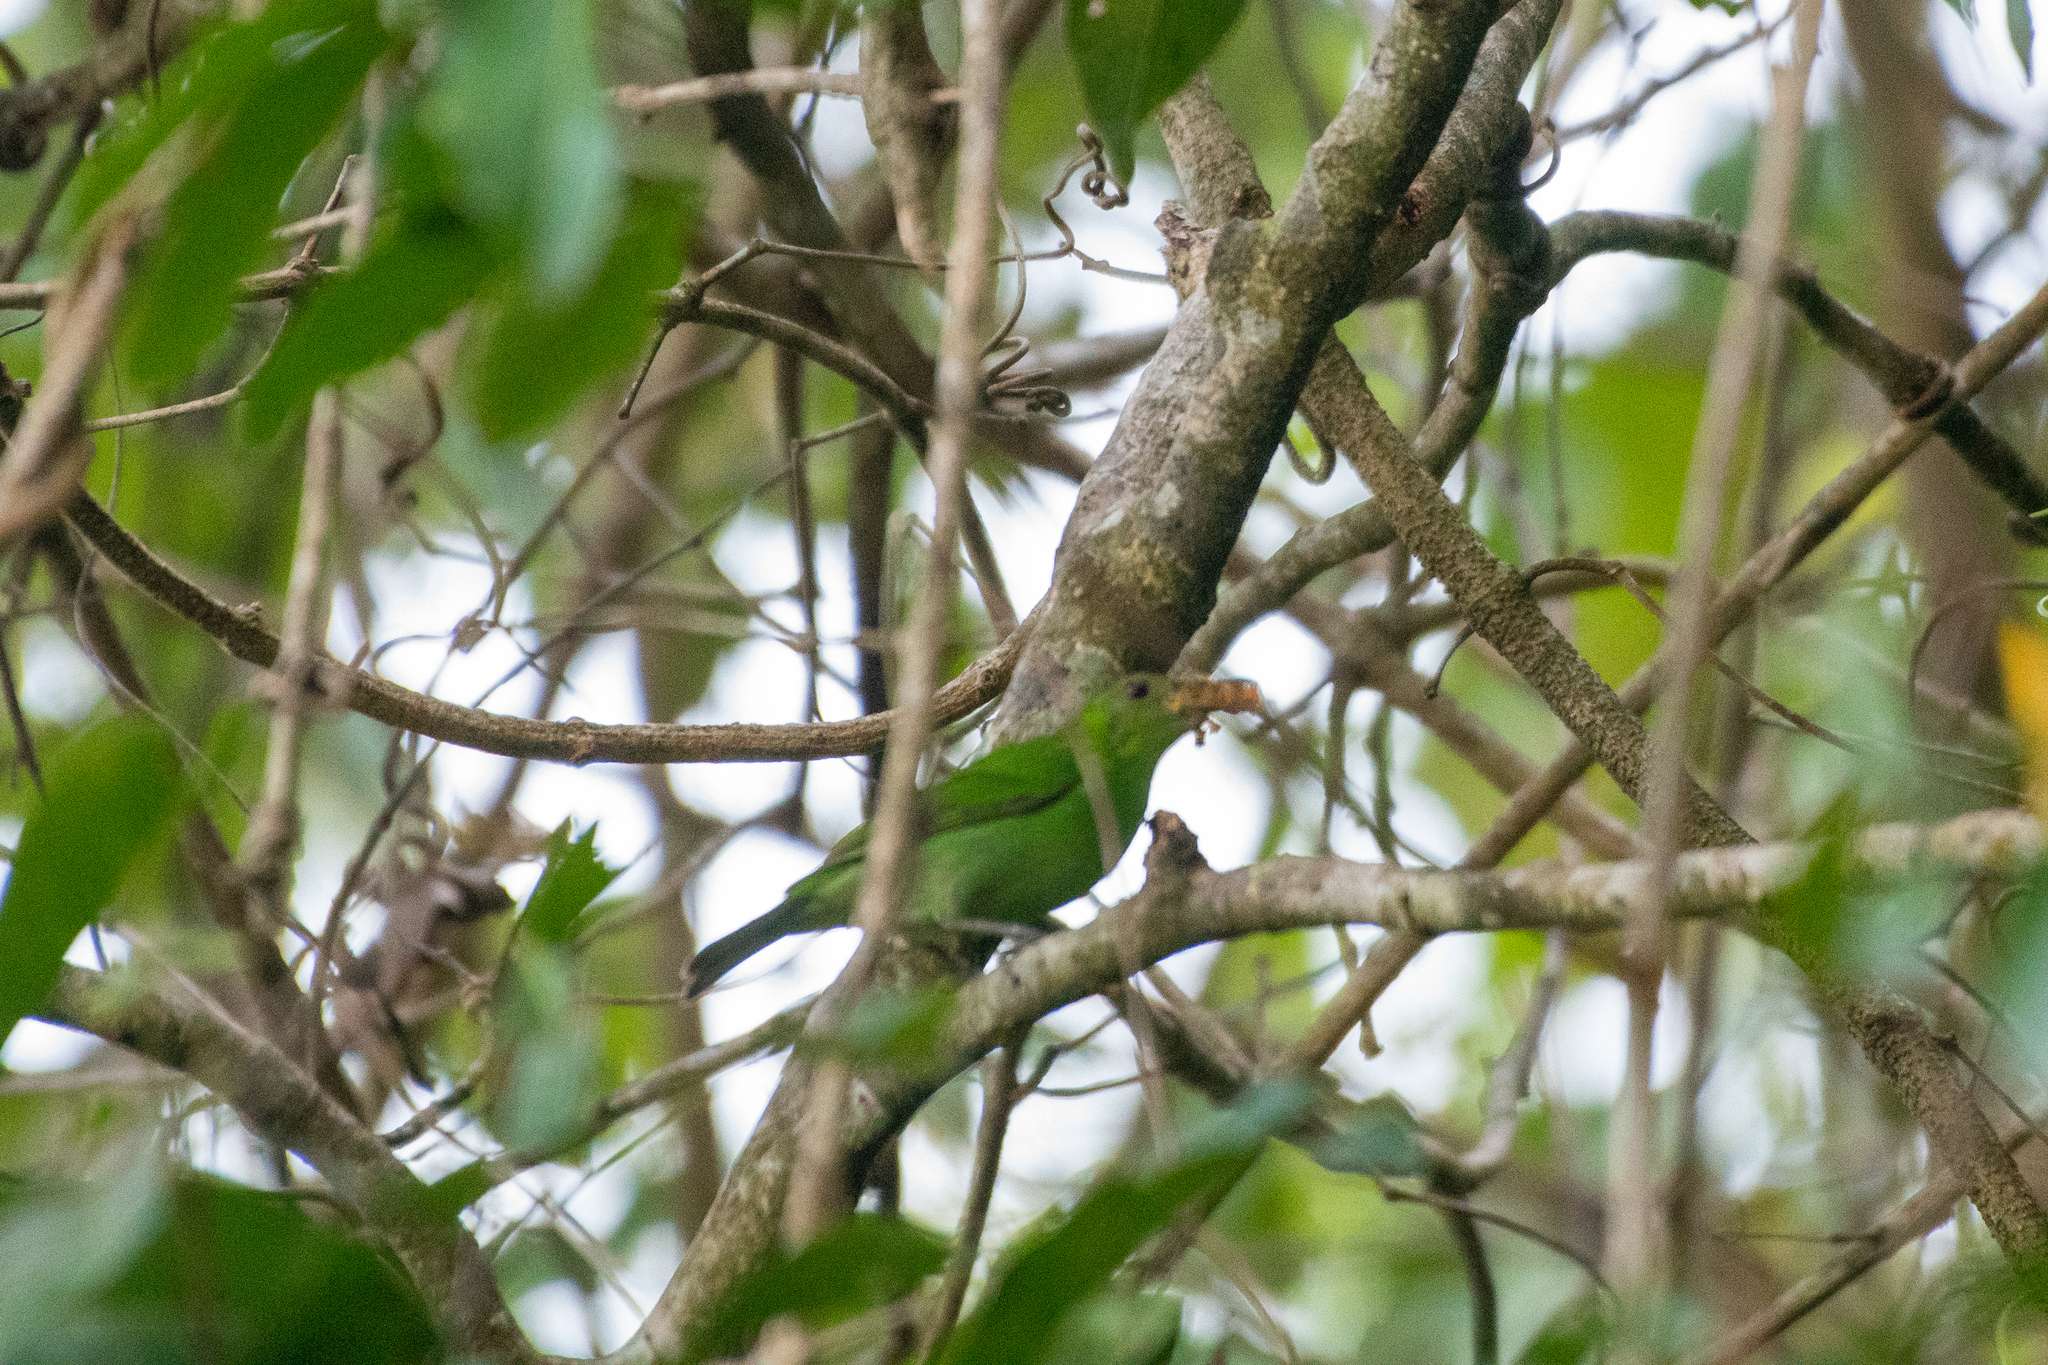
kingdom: Animalia
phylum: Chordata
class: Aves
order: Passeriformes
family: Thraupidae
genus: Chlorophanes
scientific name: Chlorophanes spiza
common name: Green honeycreeper
